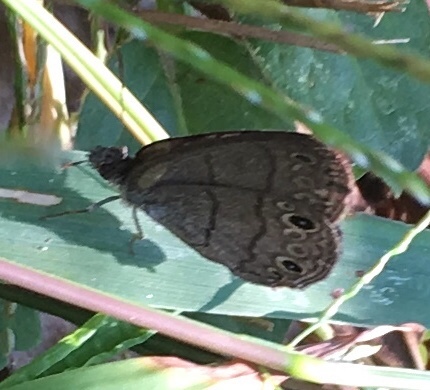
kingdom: Animalia
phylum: Arthropoda
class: Insecta
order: Lepidoptera
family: Nymphalidae
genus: Hermeuptychia
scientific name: Hermeuptychia hermes
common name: Hermes satyr
